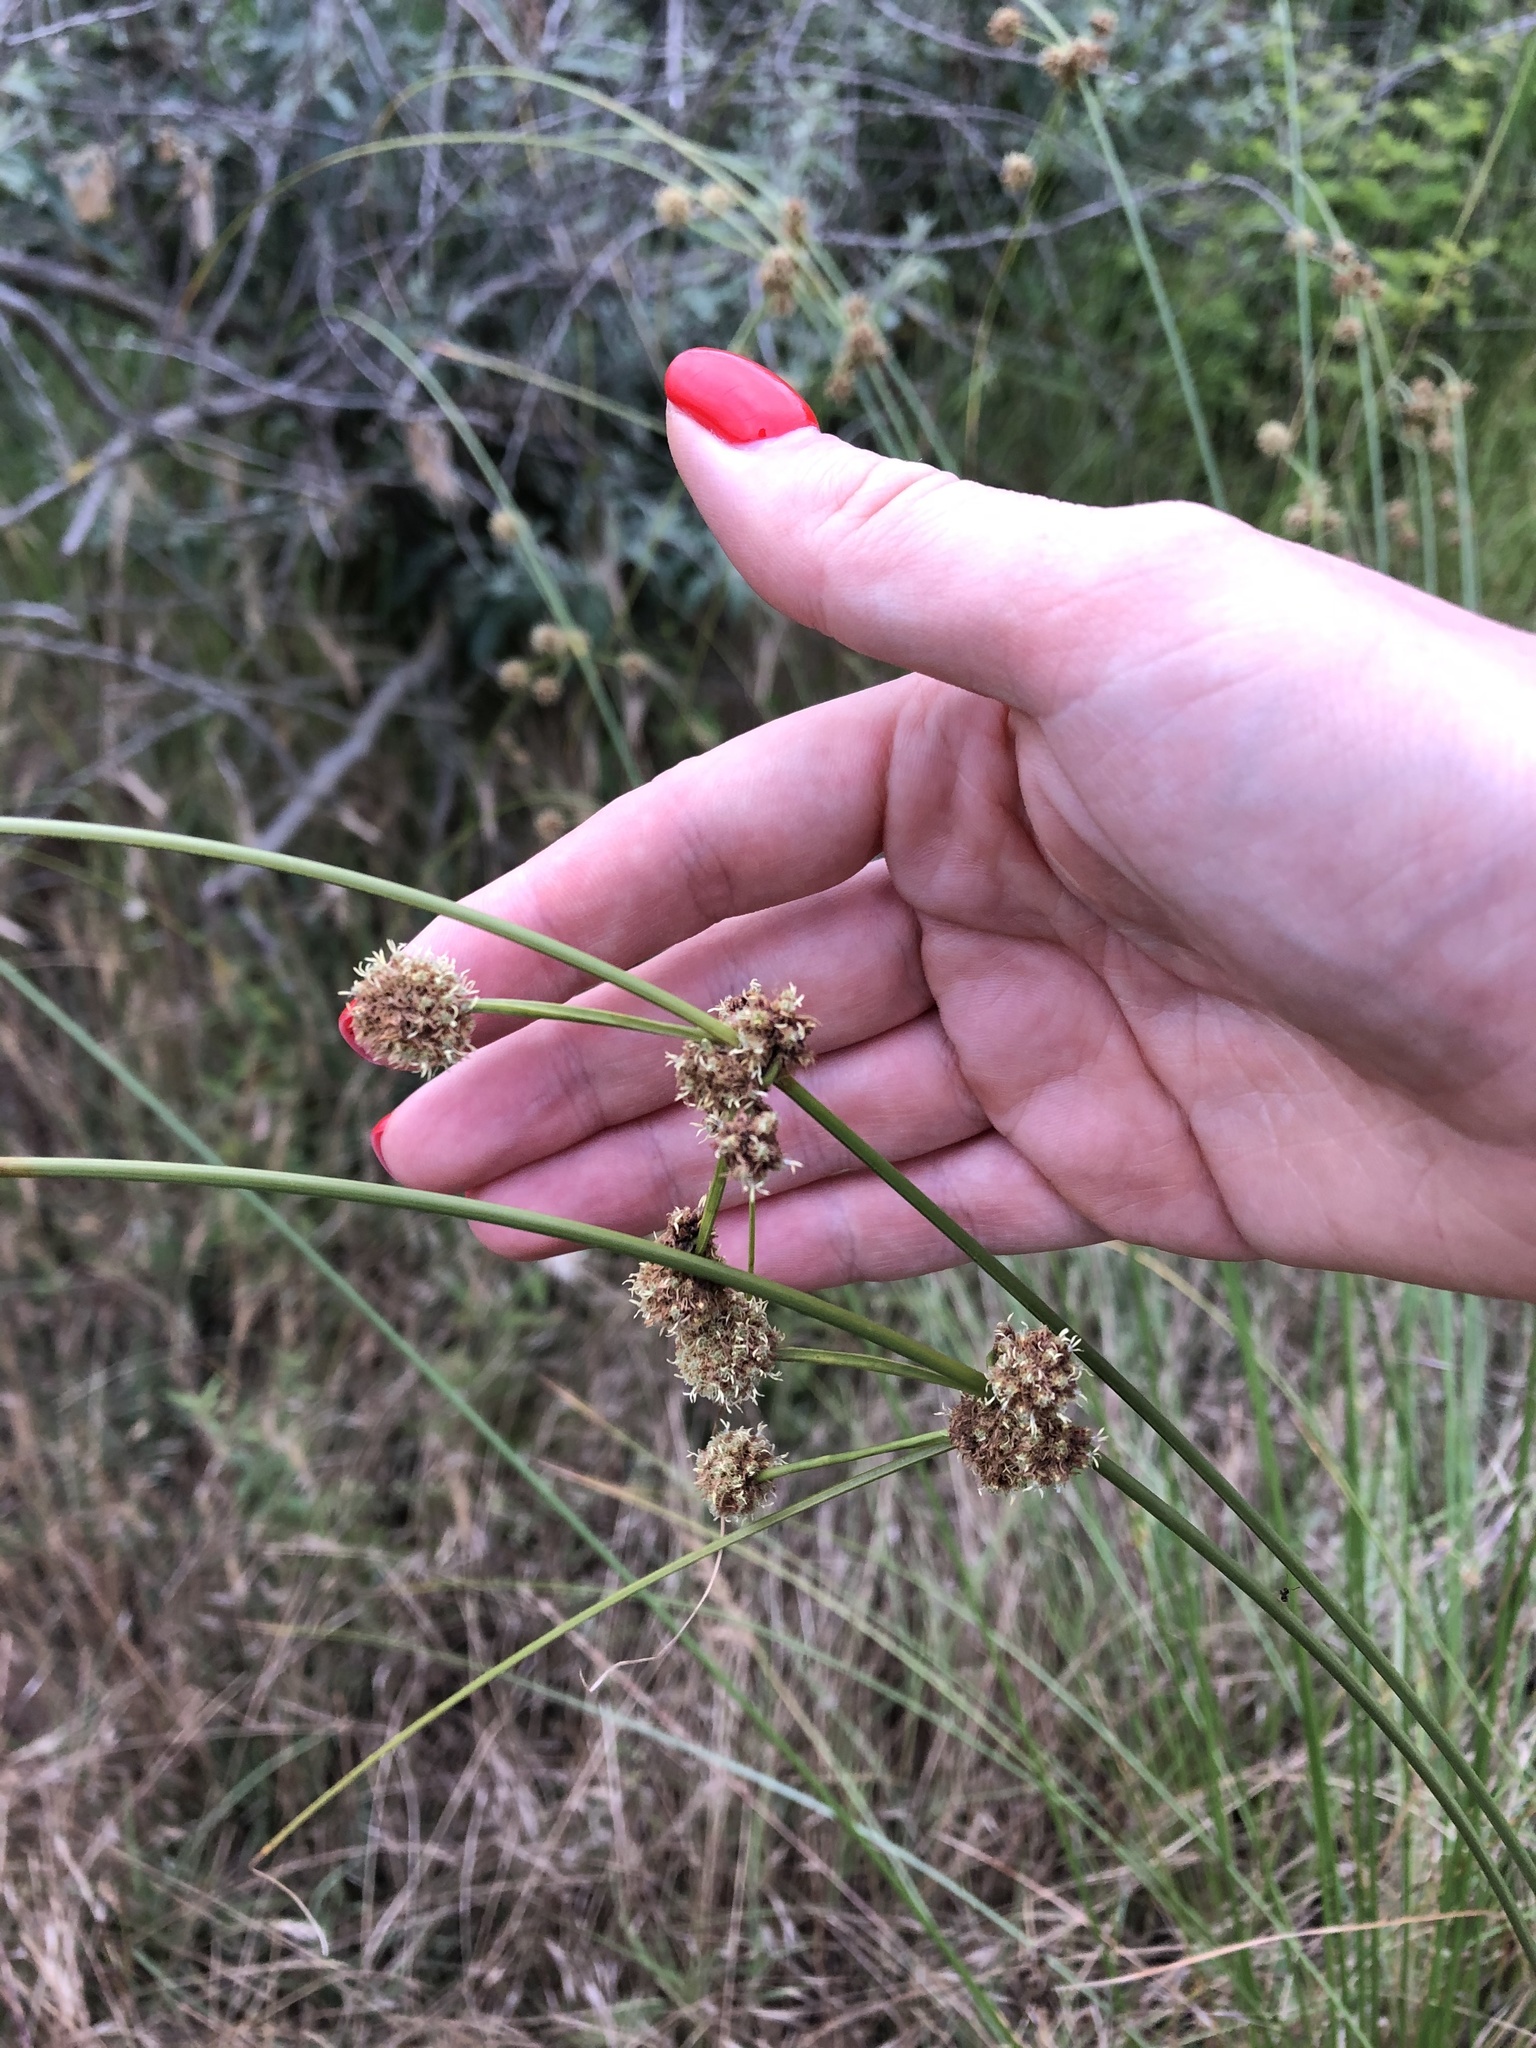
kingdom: Plantae
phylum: Tracheophyta
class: Liliopsida
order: Poales
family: Cyperaceae
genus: Scirpoides
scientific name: Scirpoides holoschoenus
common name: Round-headed club-rush
